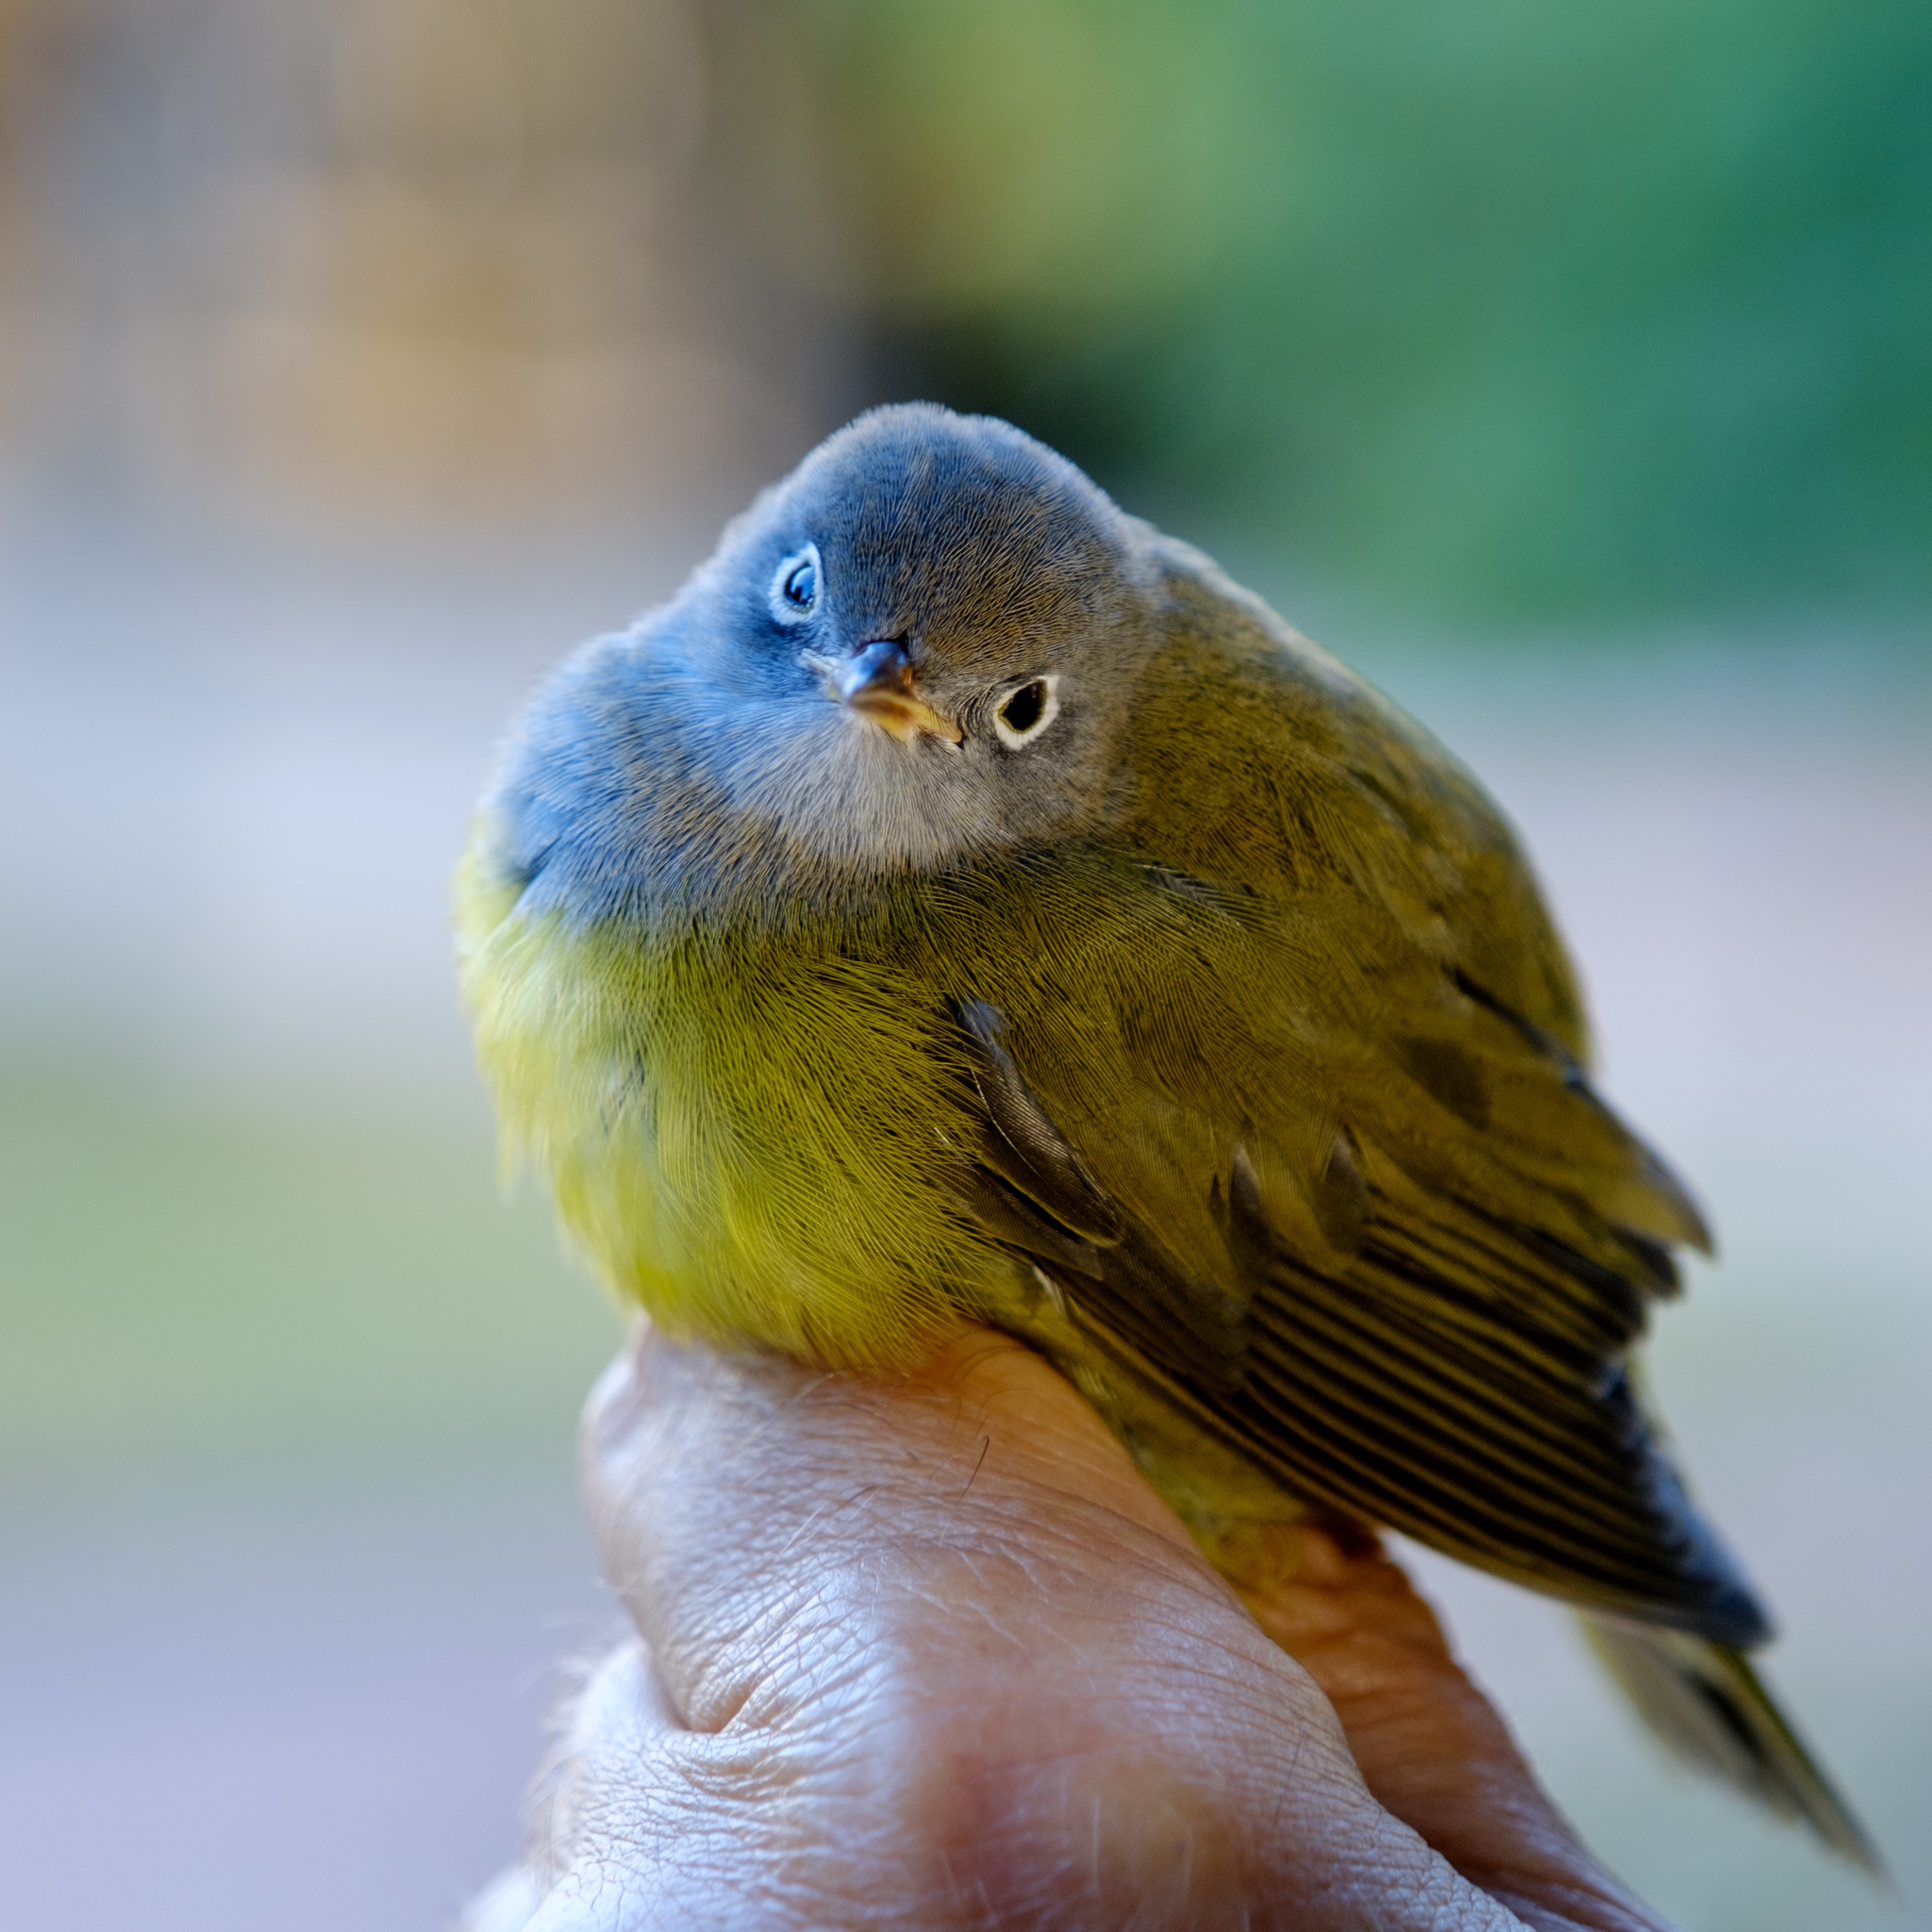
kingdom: Animalia
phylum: Chordata
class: Aves
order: Passeriformes
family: Parulidae
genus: Oporornis
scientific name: Oporornis agilis
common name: Connecticut warbler
